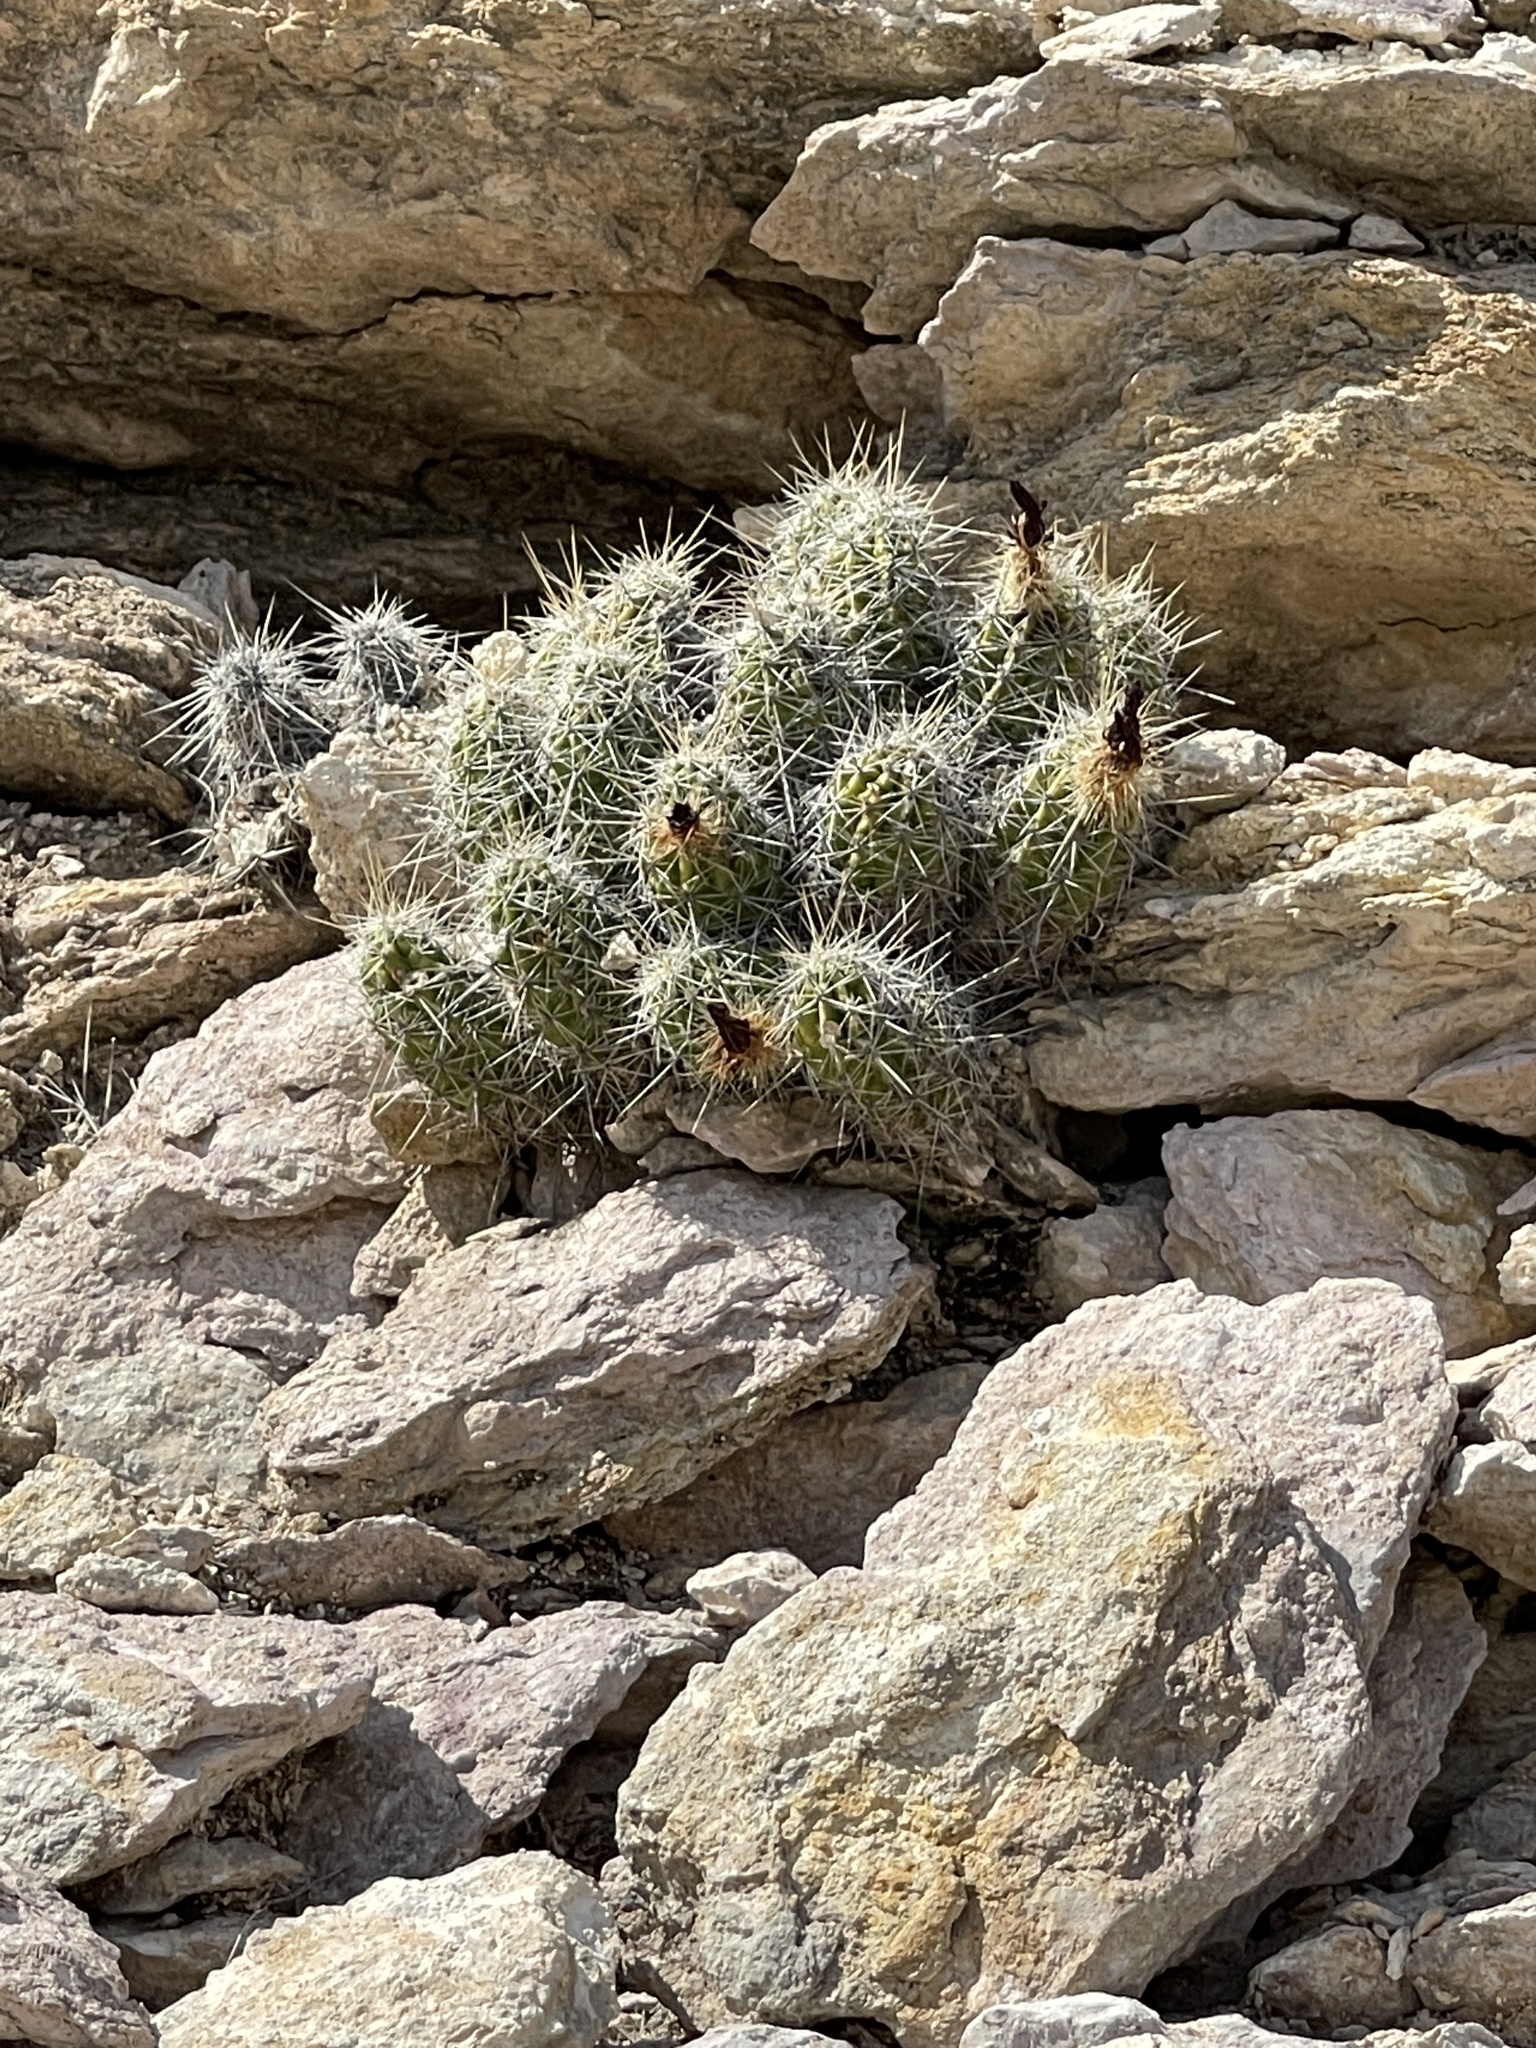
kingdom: Plantae
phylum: Tracheophyta
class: Magnoliopsida
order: Caryophyllales
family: Cactaceae
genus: Echinocereus
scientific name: Echinocereus enneacanthus
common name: Pitaya
